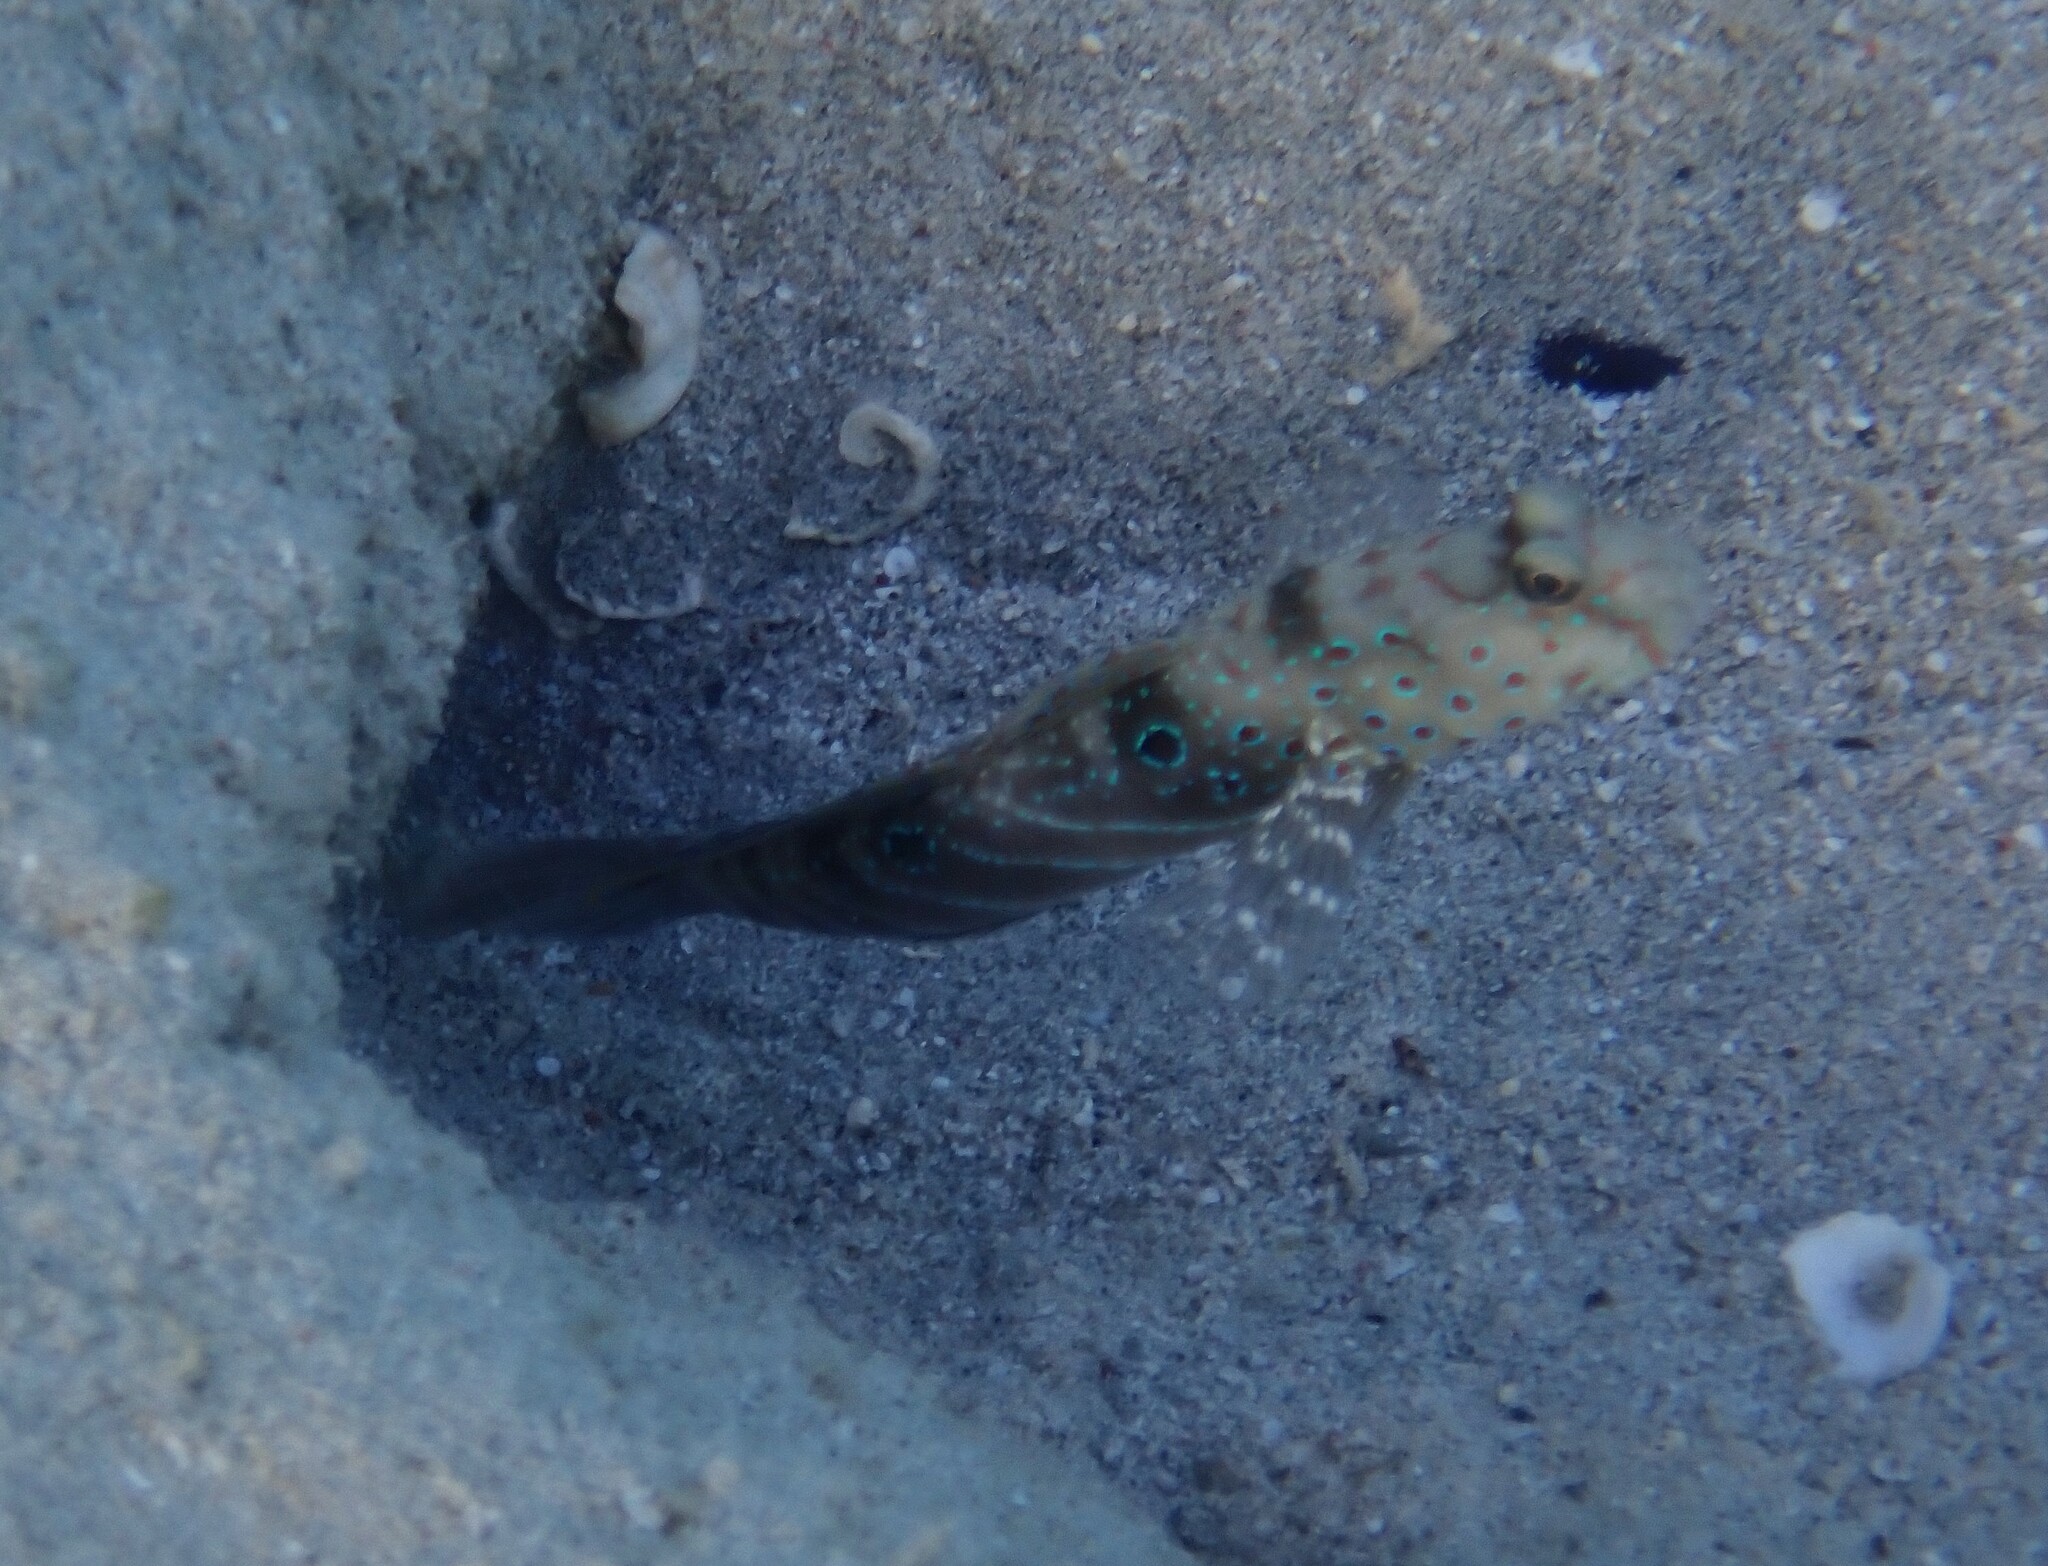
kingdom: Animalia
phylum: Chordata
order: Perciformes
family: Gobiidae
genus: Cryptocentrus
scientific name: Cryptocentrus caeruleopunctatus
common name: Blue-and-red-spotted goby
